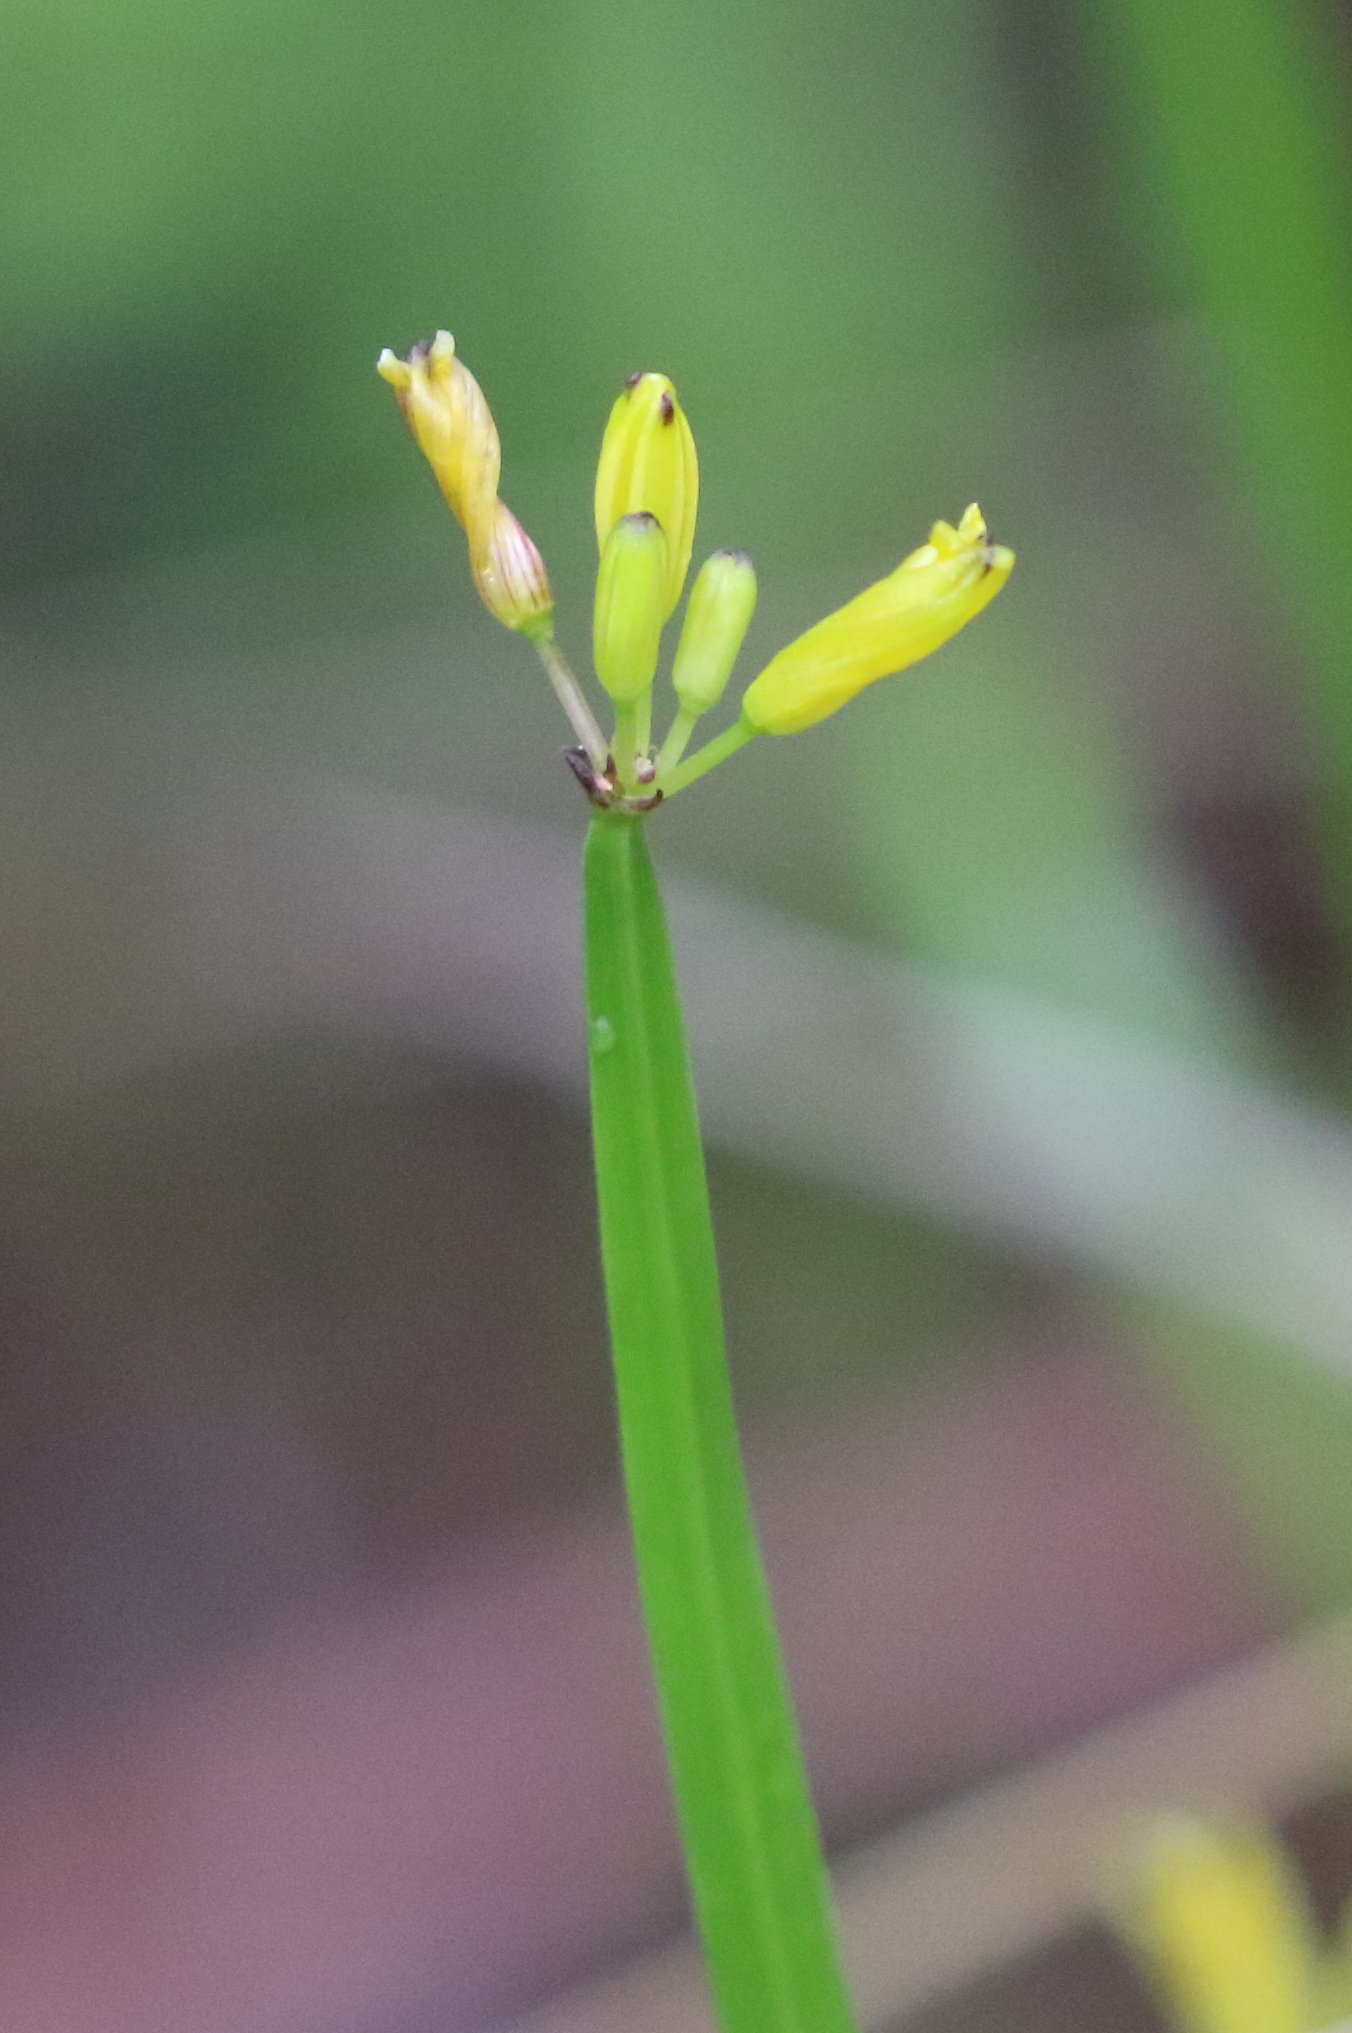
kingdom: Plantae
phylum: Tracheophyta
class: Liliopsida
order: Asparagales
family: Asphodelaceae
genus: Tricoryne
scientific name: Tricoryne anceps
